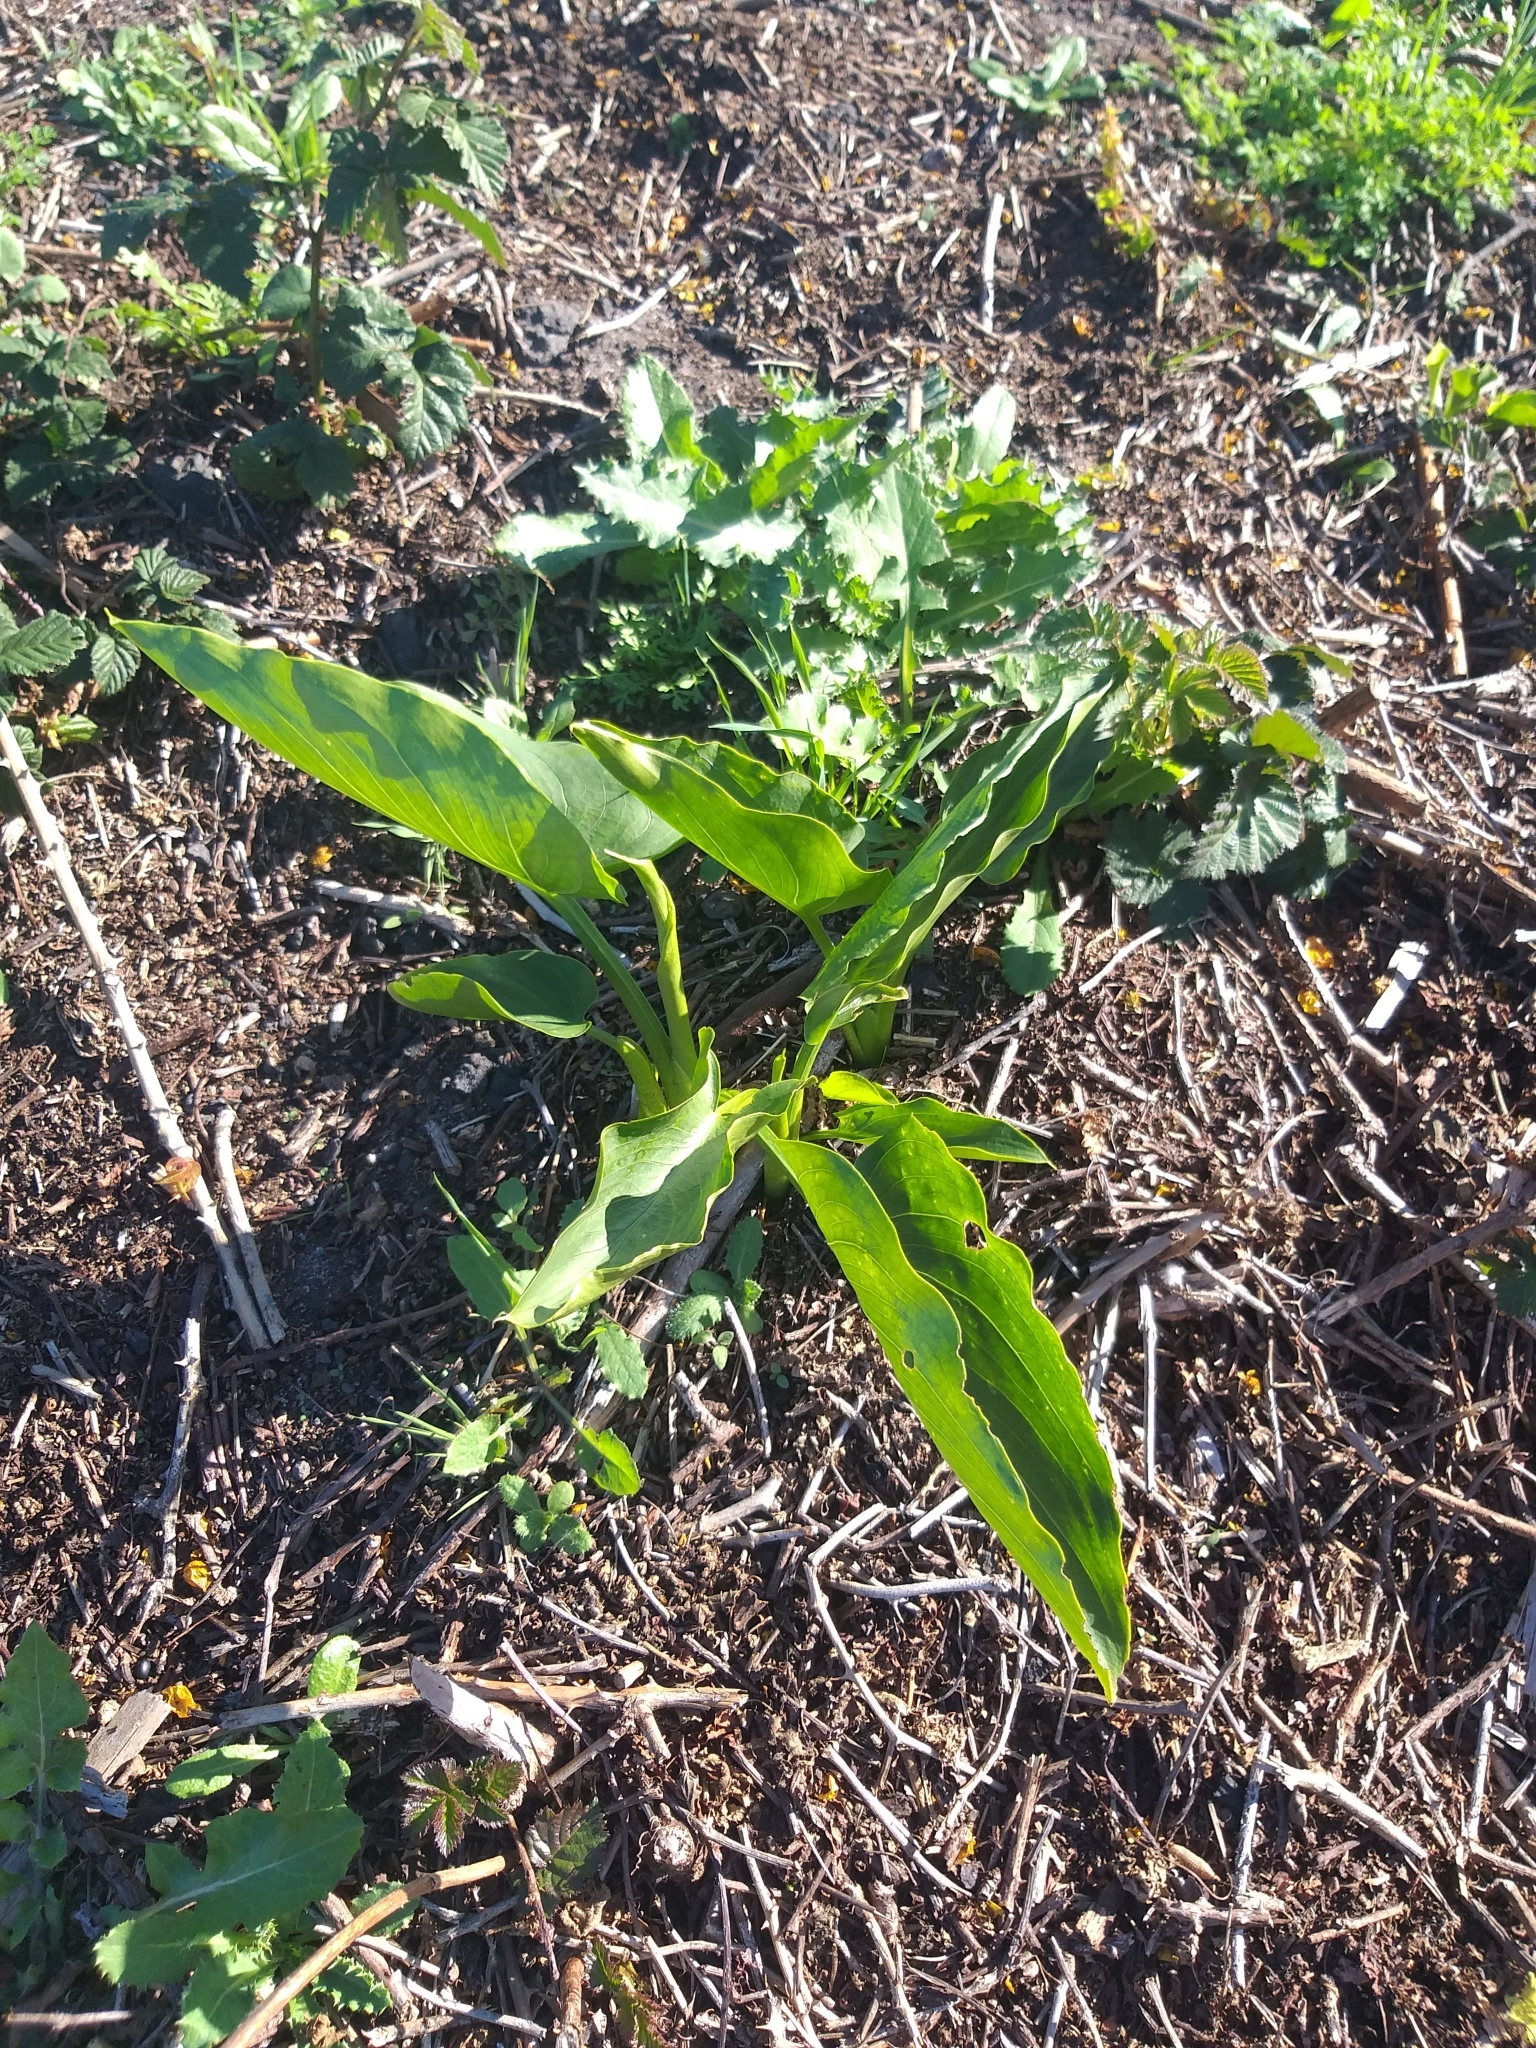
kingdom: Plantae
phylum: Tracheophyta
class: Liliopsida
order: Alismatales
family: Araceae
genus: Zantedeschia
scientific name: Zantedeschia aethiopica
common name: Altar-lily
